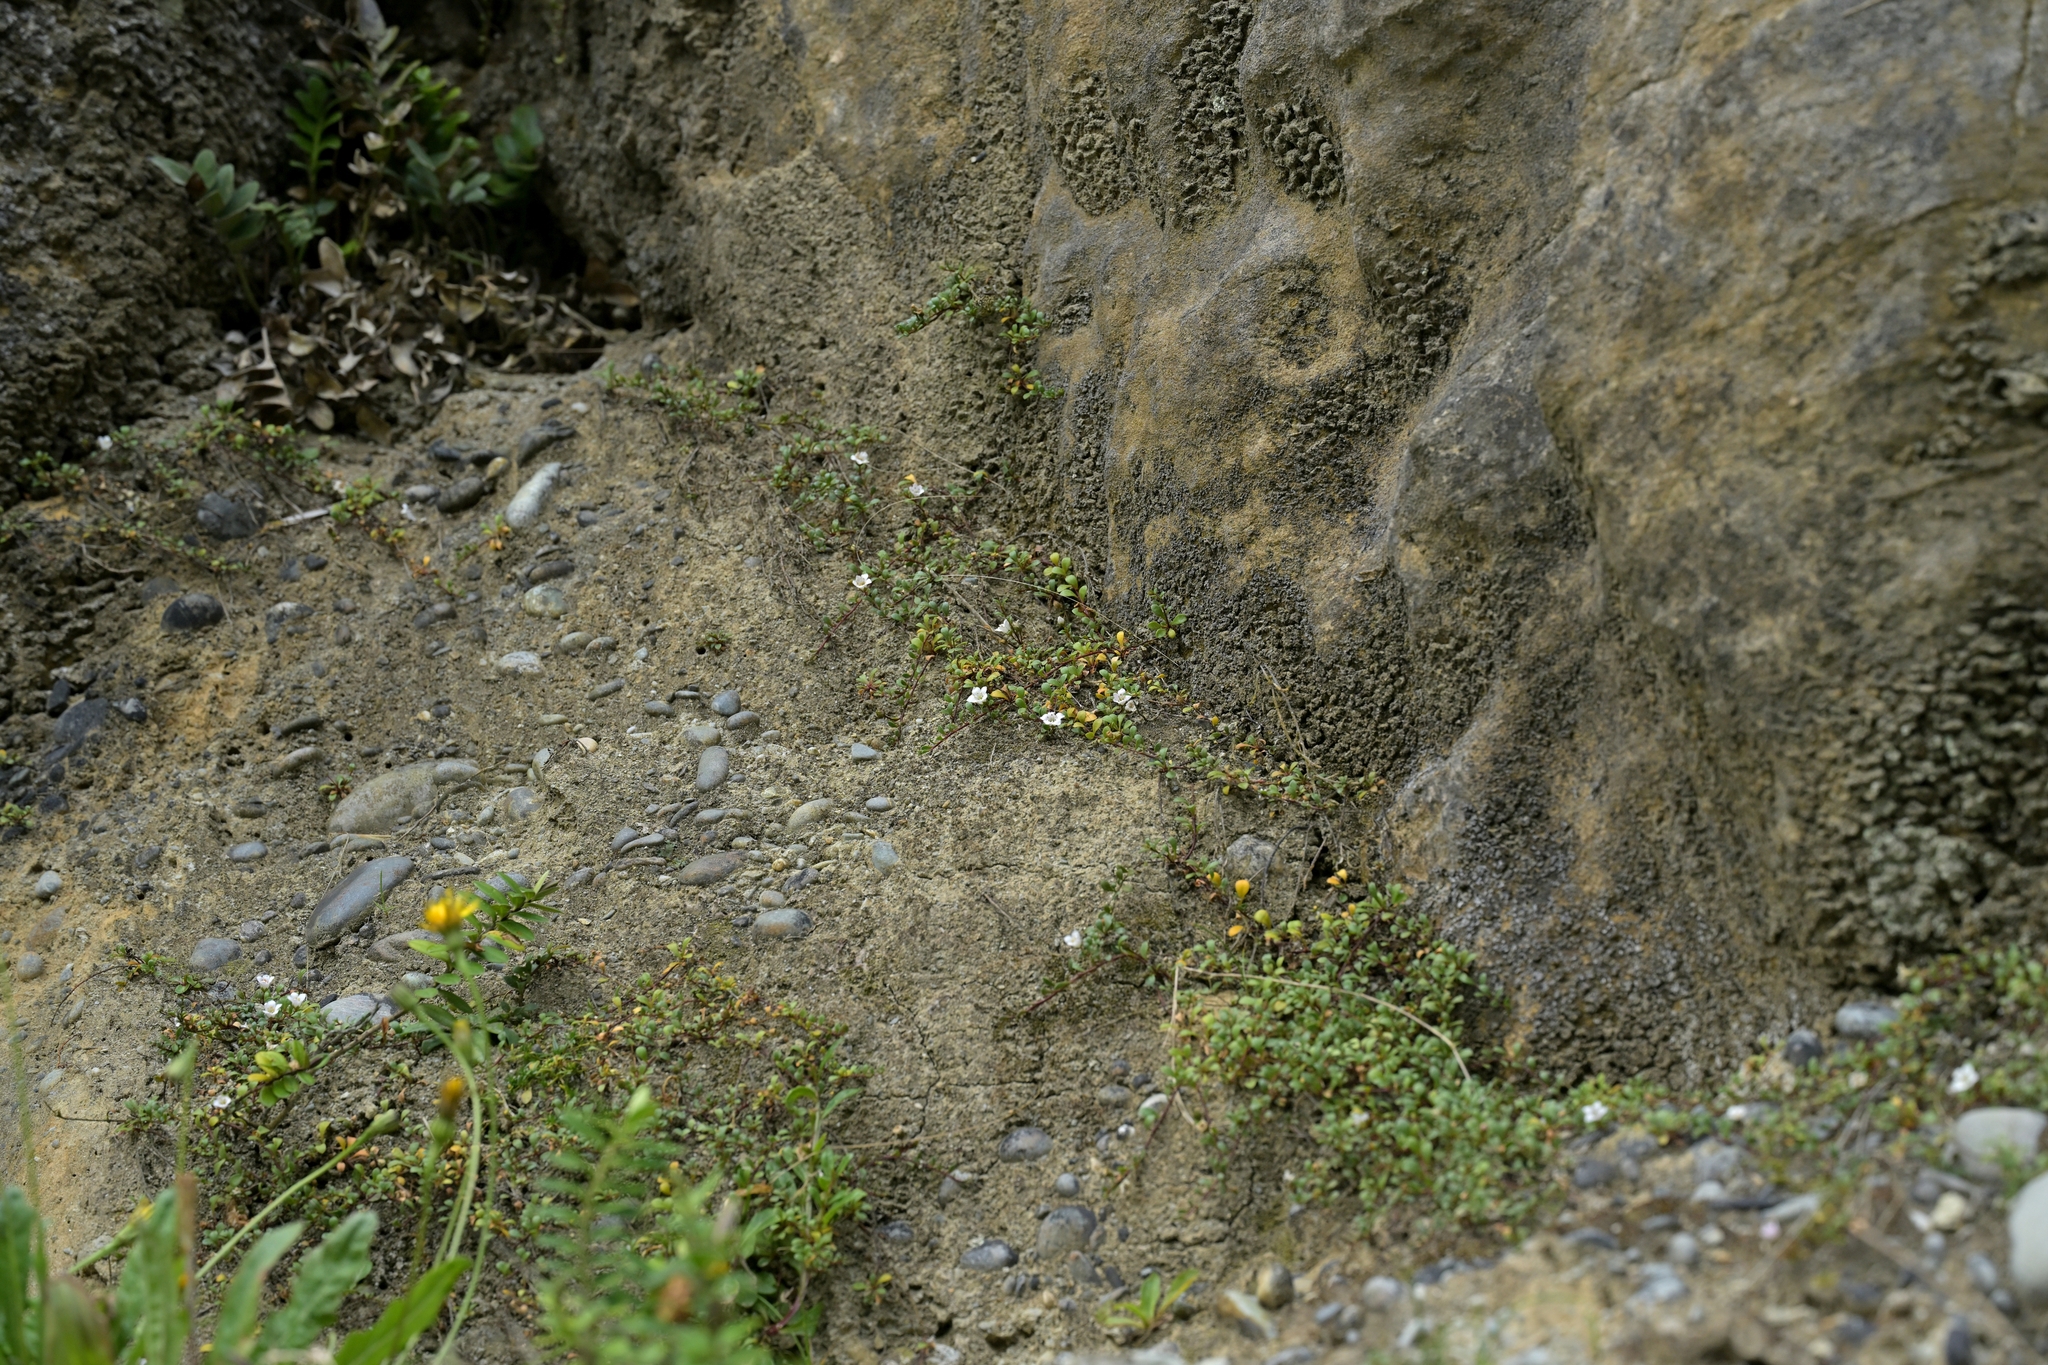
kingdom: Plantae
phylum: Tracheophyta
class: Magnoliopsida
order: Ericales
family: Primulaceae
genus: Samolus
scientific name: Samolus repens
